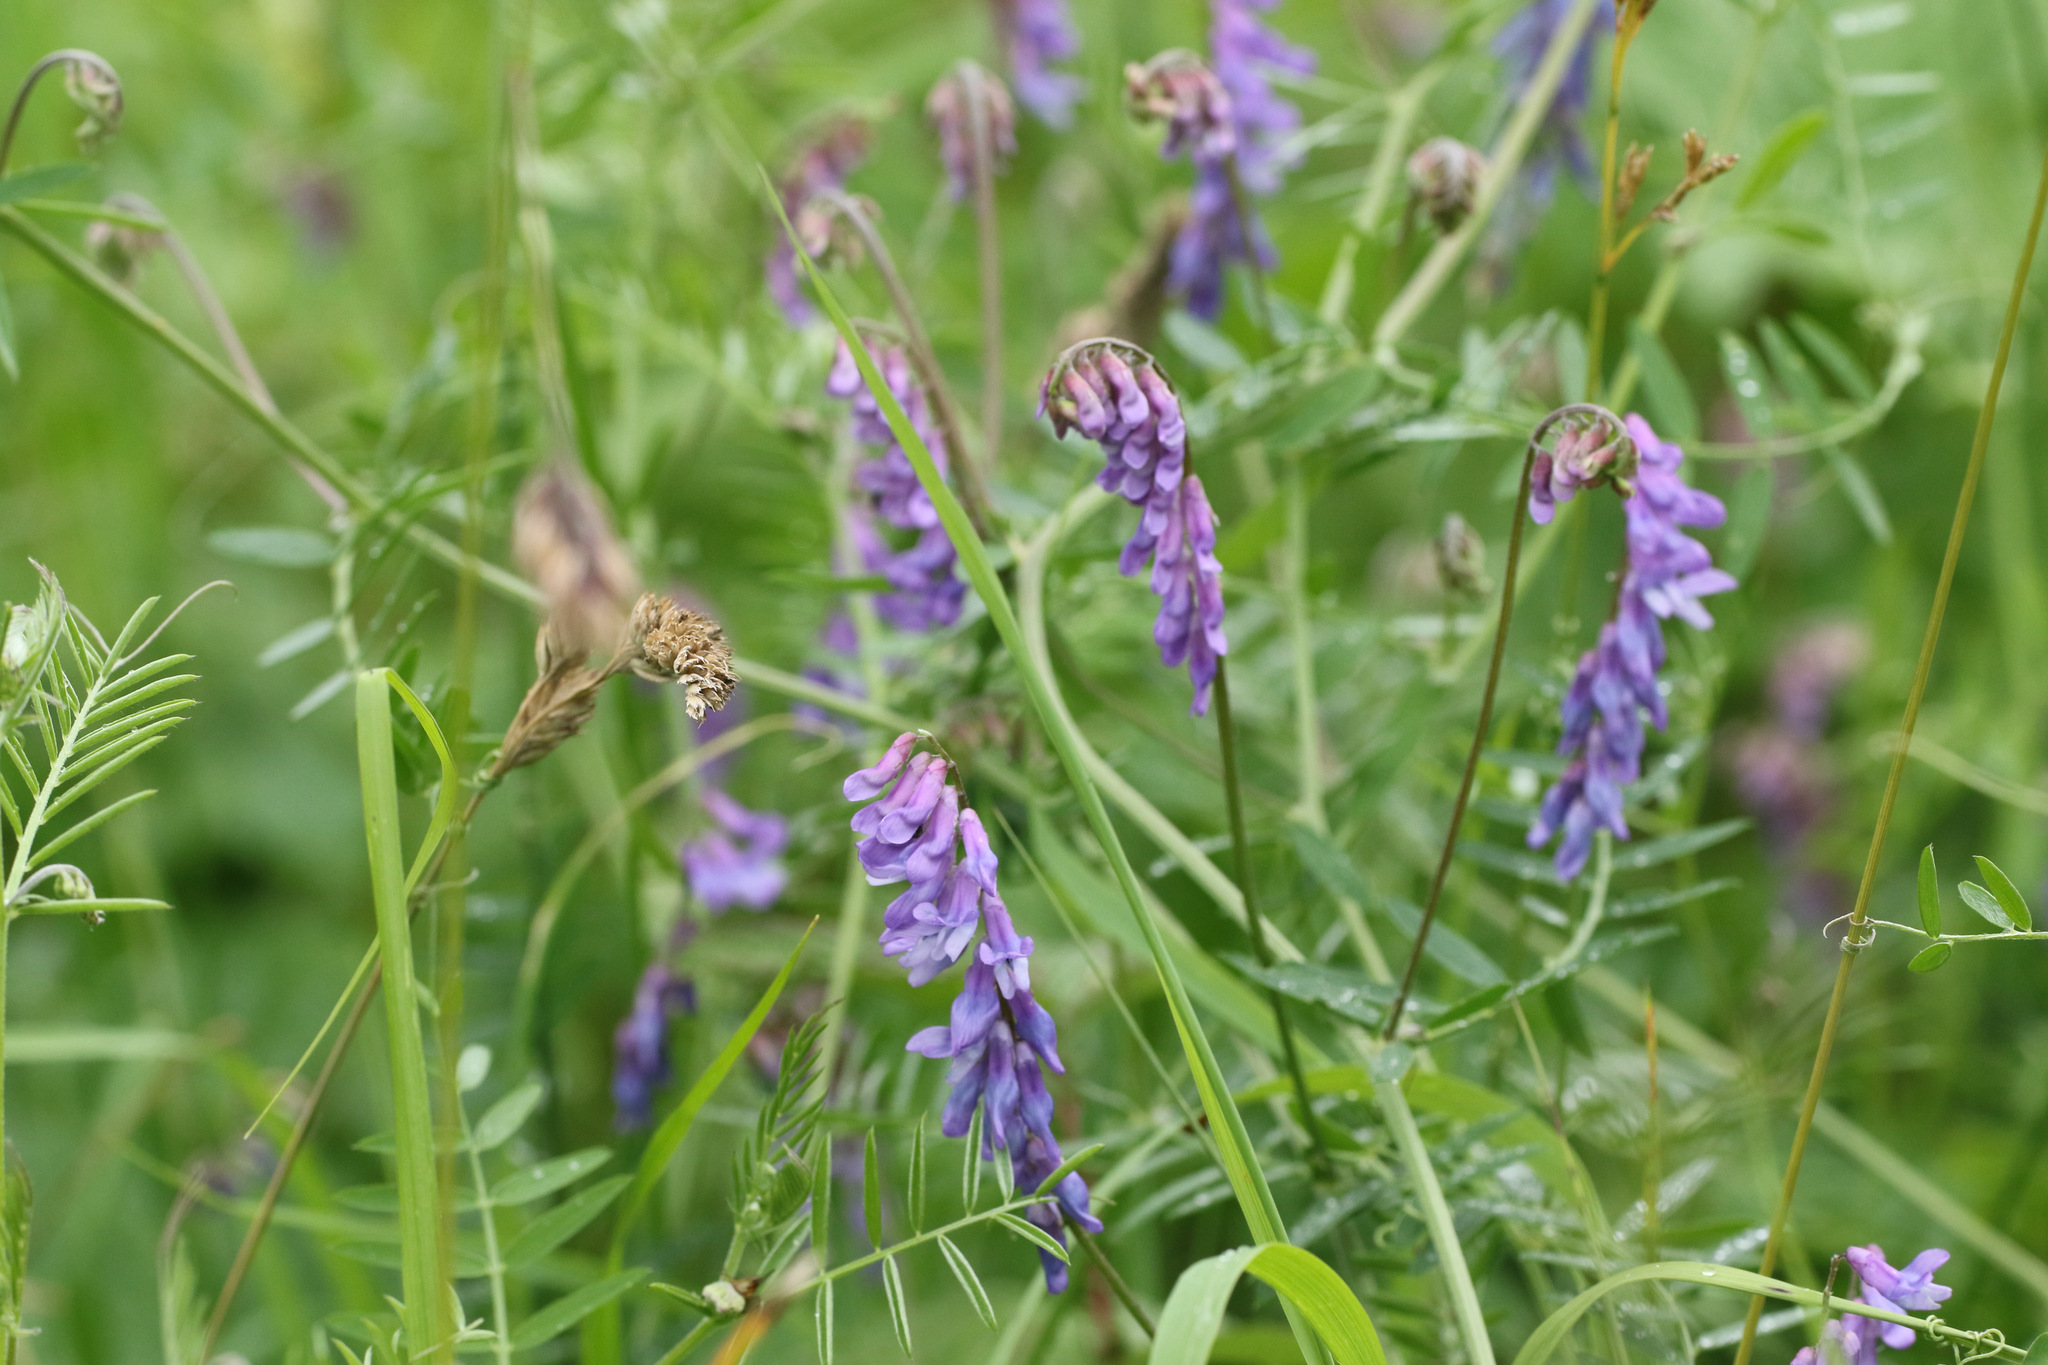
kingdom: Plantae
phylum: Tracheophyta
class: Magnoliopsida
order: Fabales
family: Fabaceae
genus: Vicia
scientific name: Vicia cracca
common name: Bird vetch
